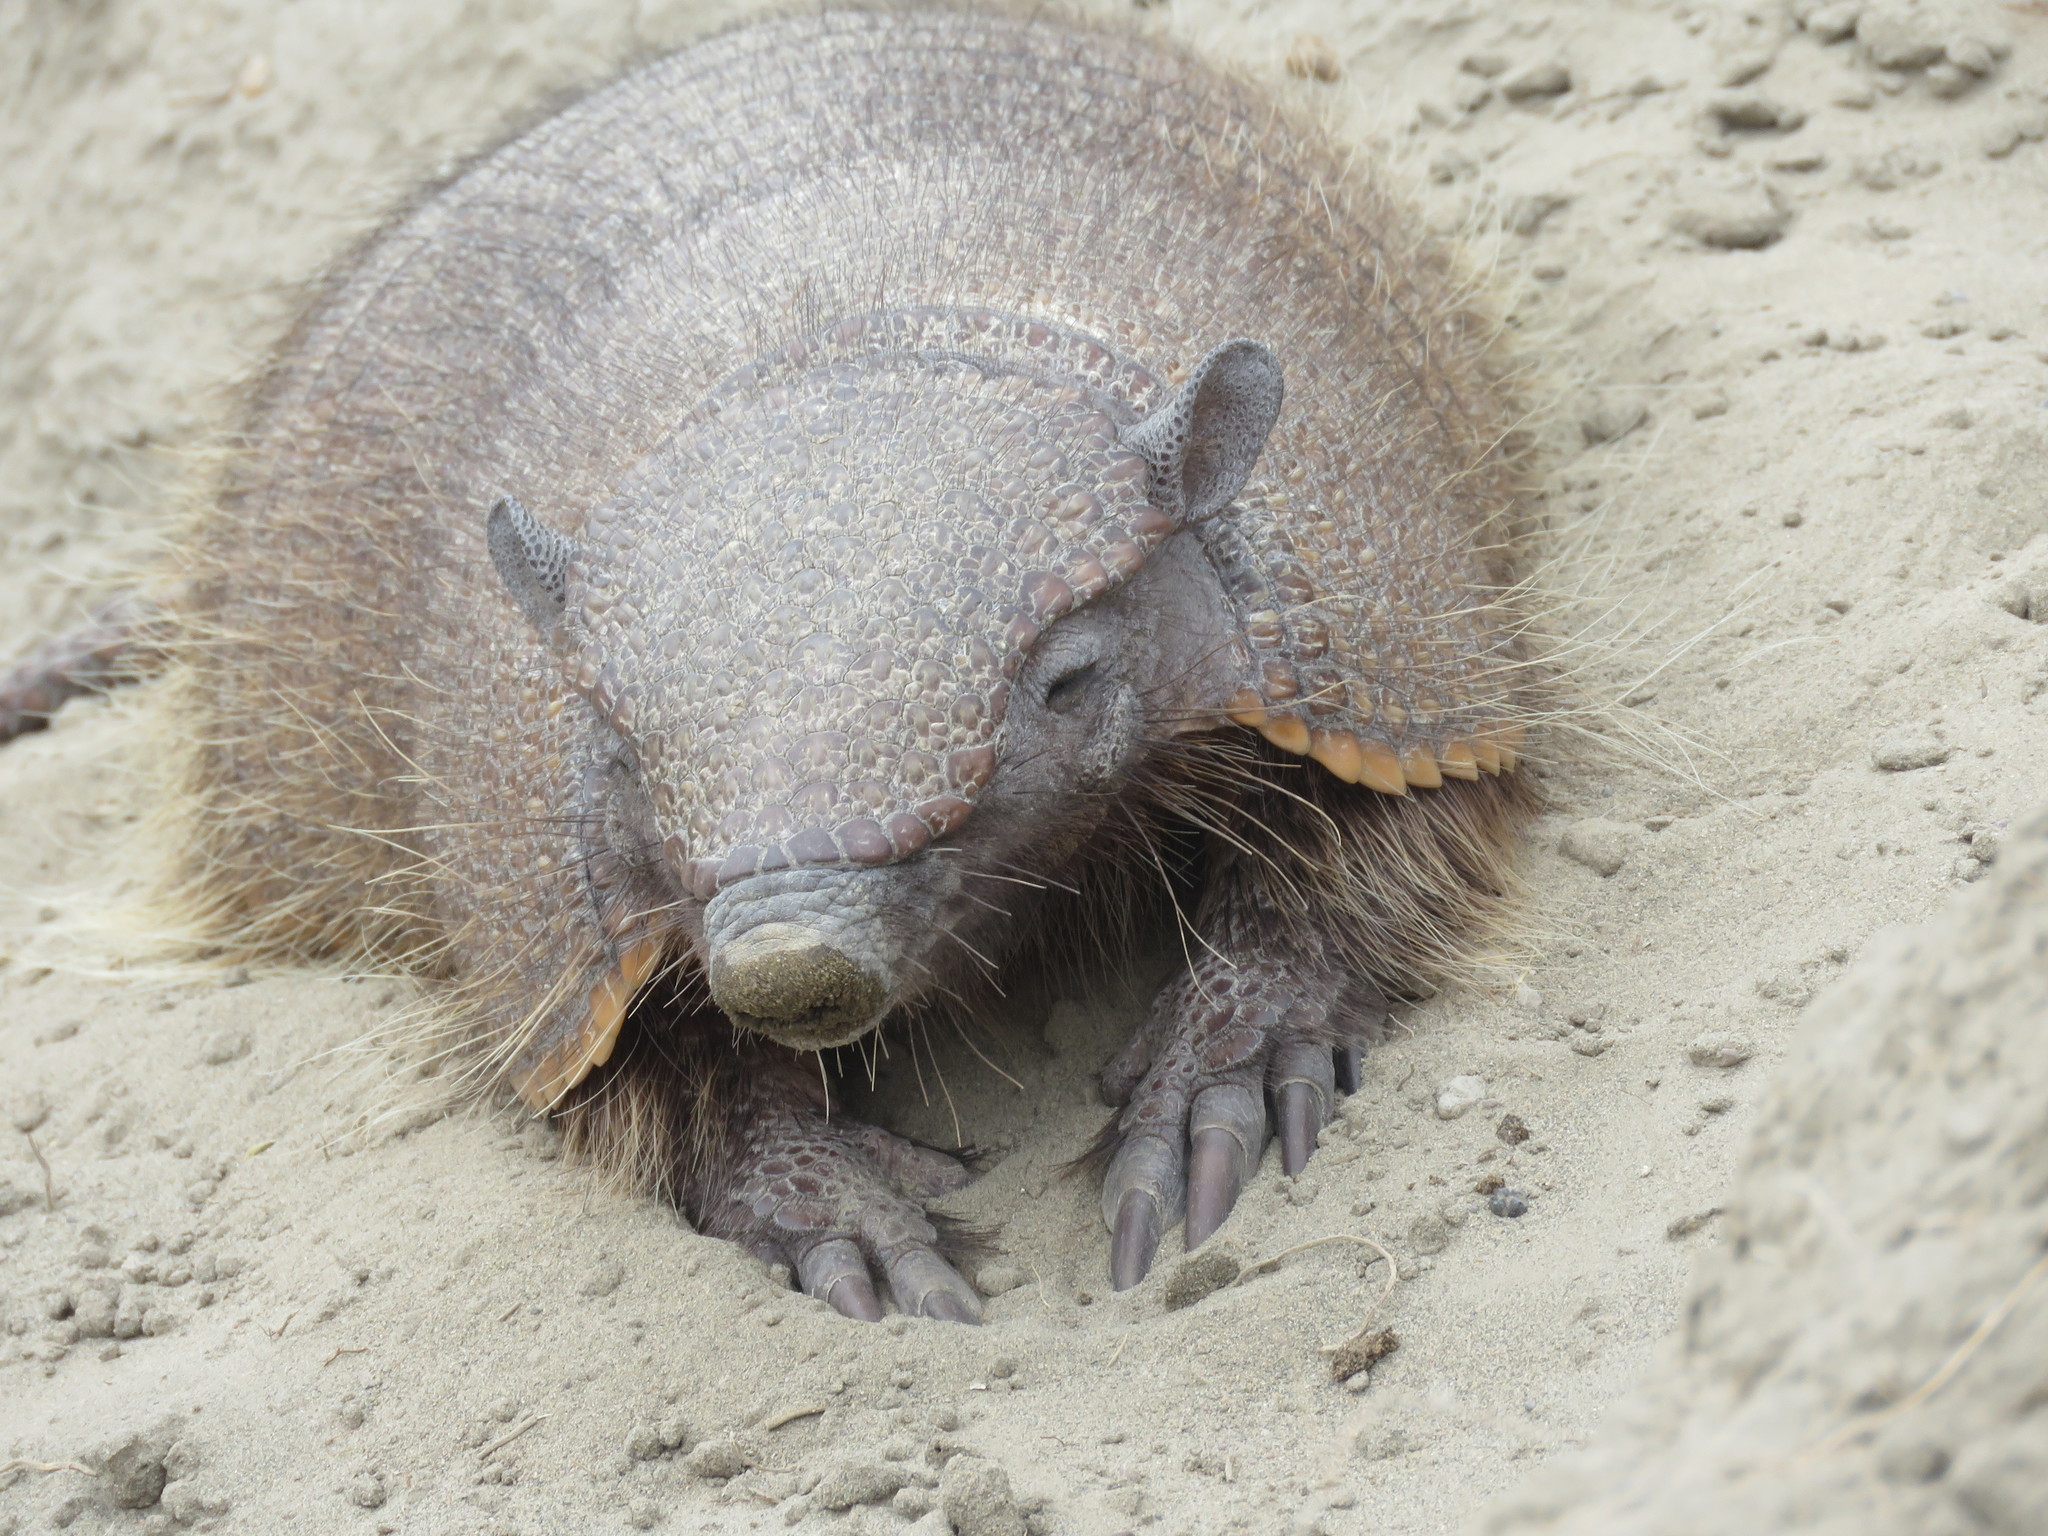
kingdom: Animalia
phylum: Chordata
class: Mammalia
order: Cingulata
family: Dasypodidae
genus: Chaetophractus
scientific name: Chaetophractus villosus
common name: Big hairy armadillo
